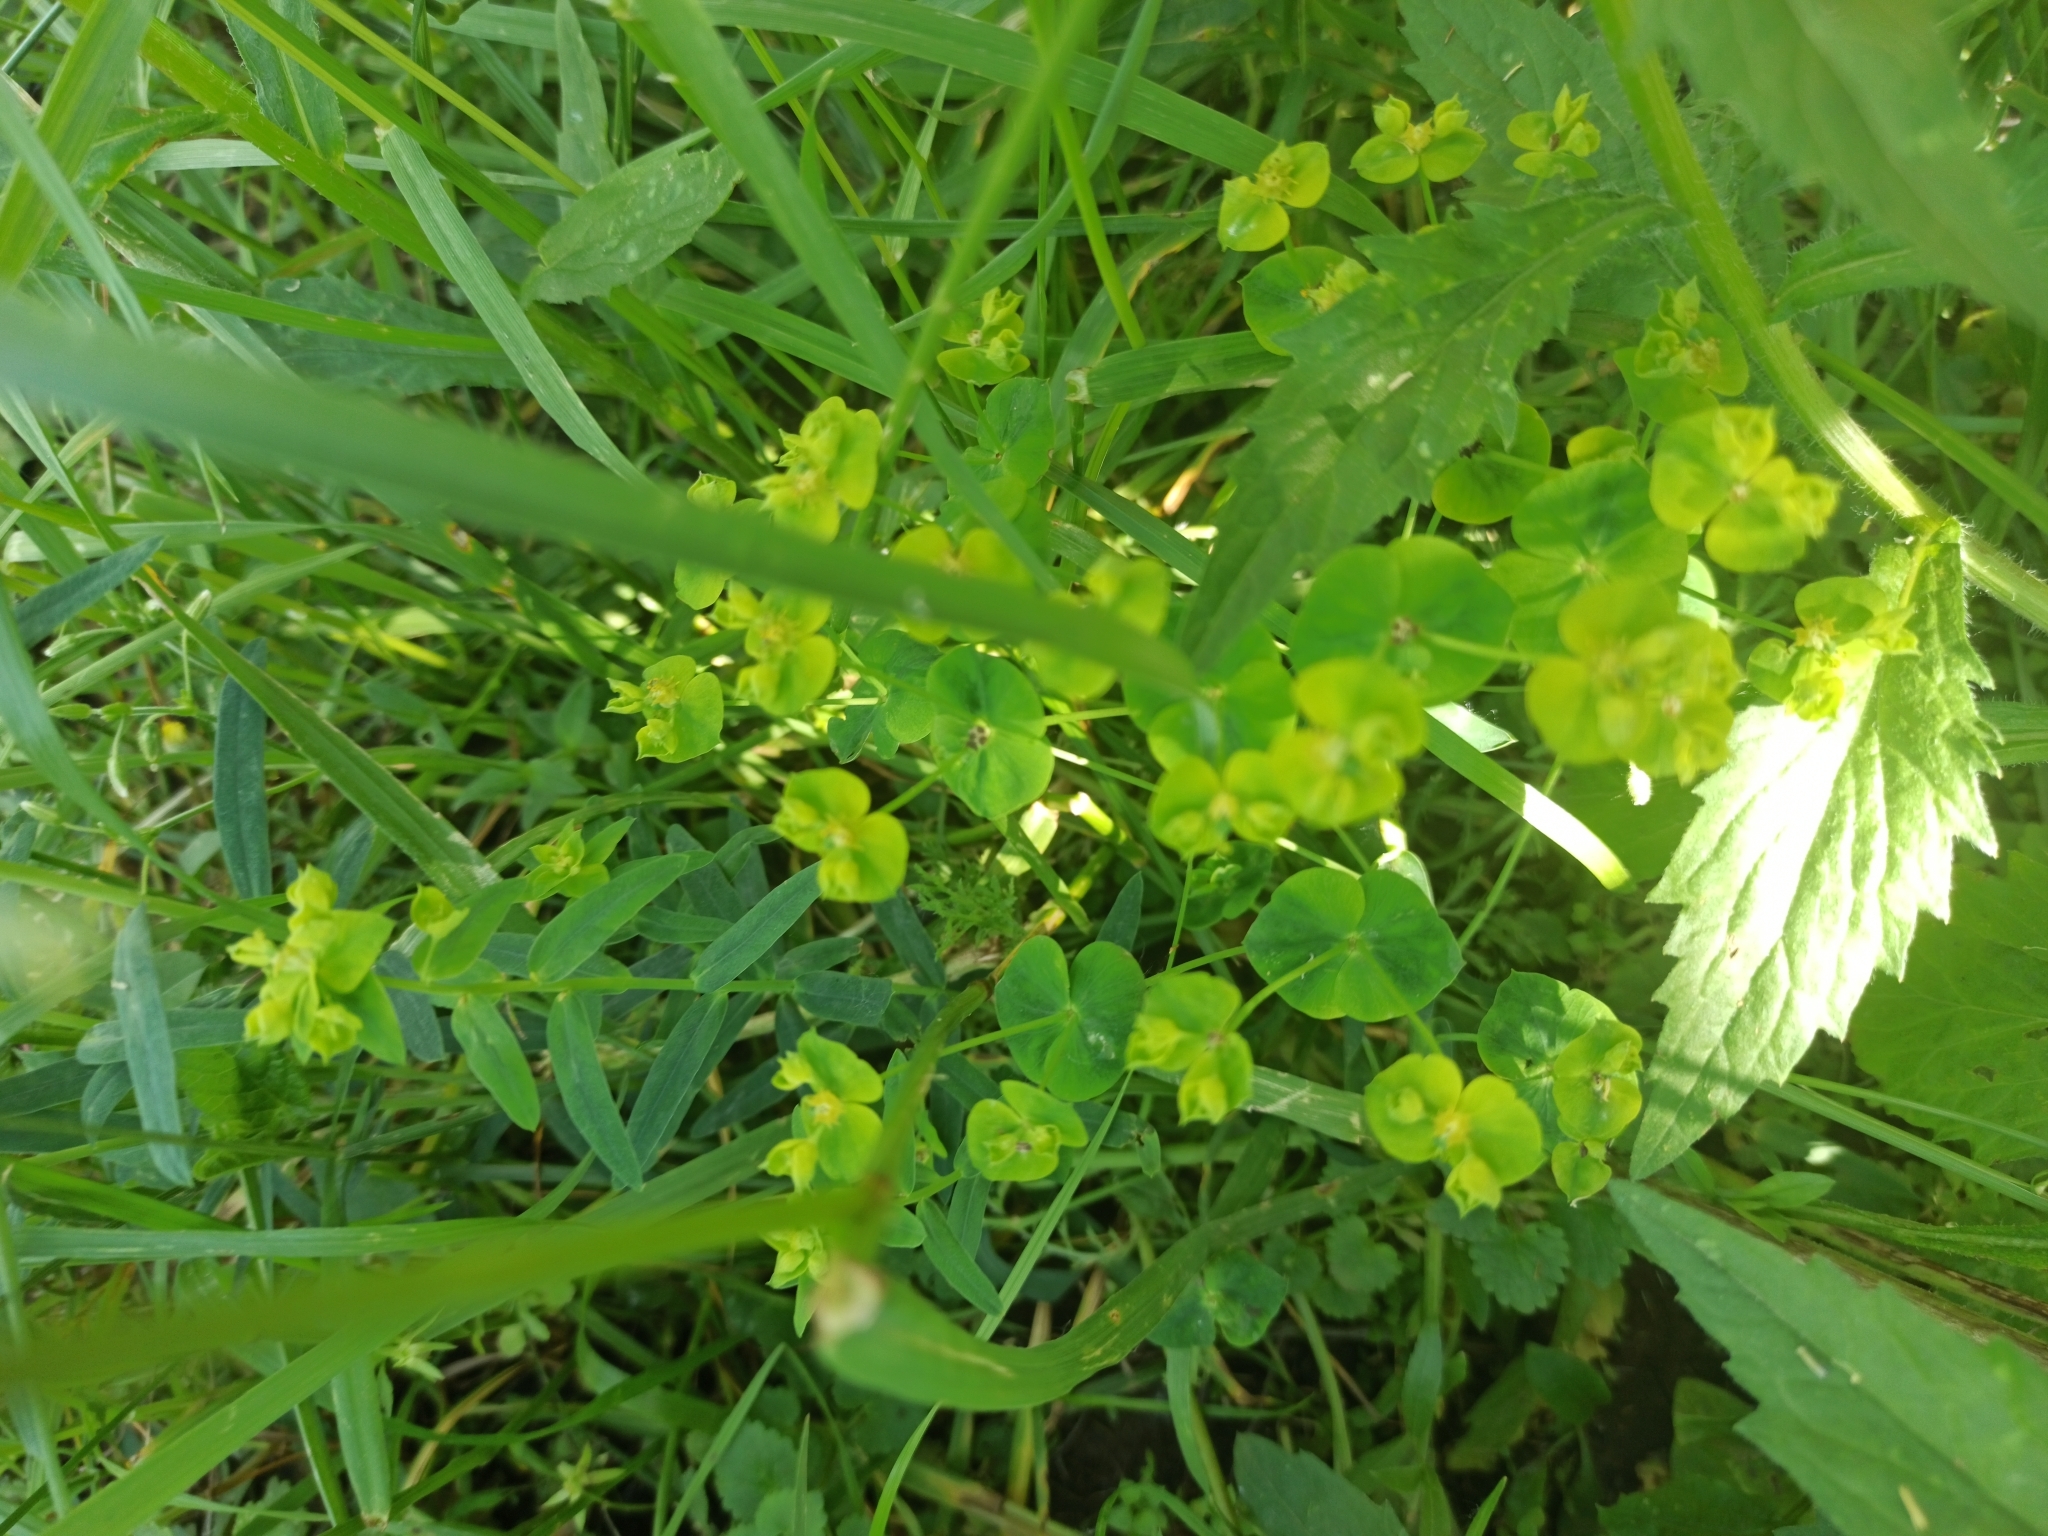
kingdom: Plantae
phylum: Tracheophyta
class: Magnoliopsida
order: Malpighiales
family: Euphorbiaceae
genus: Euphorbia
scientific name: Euphorbia virgata
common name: Leafy spurge
